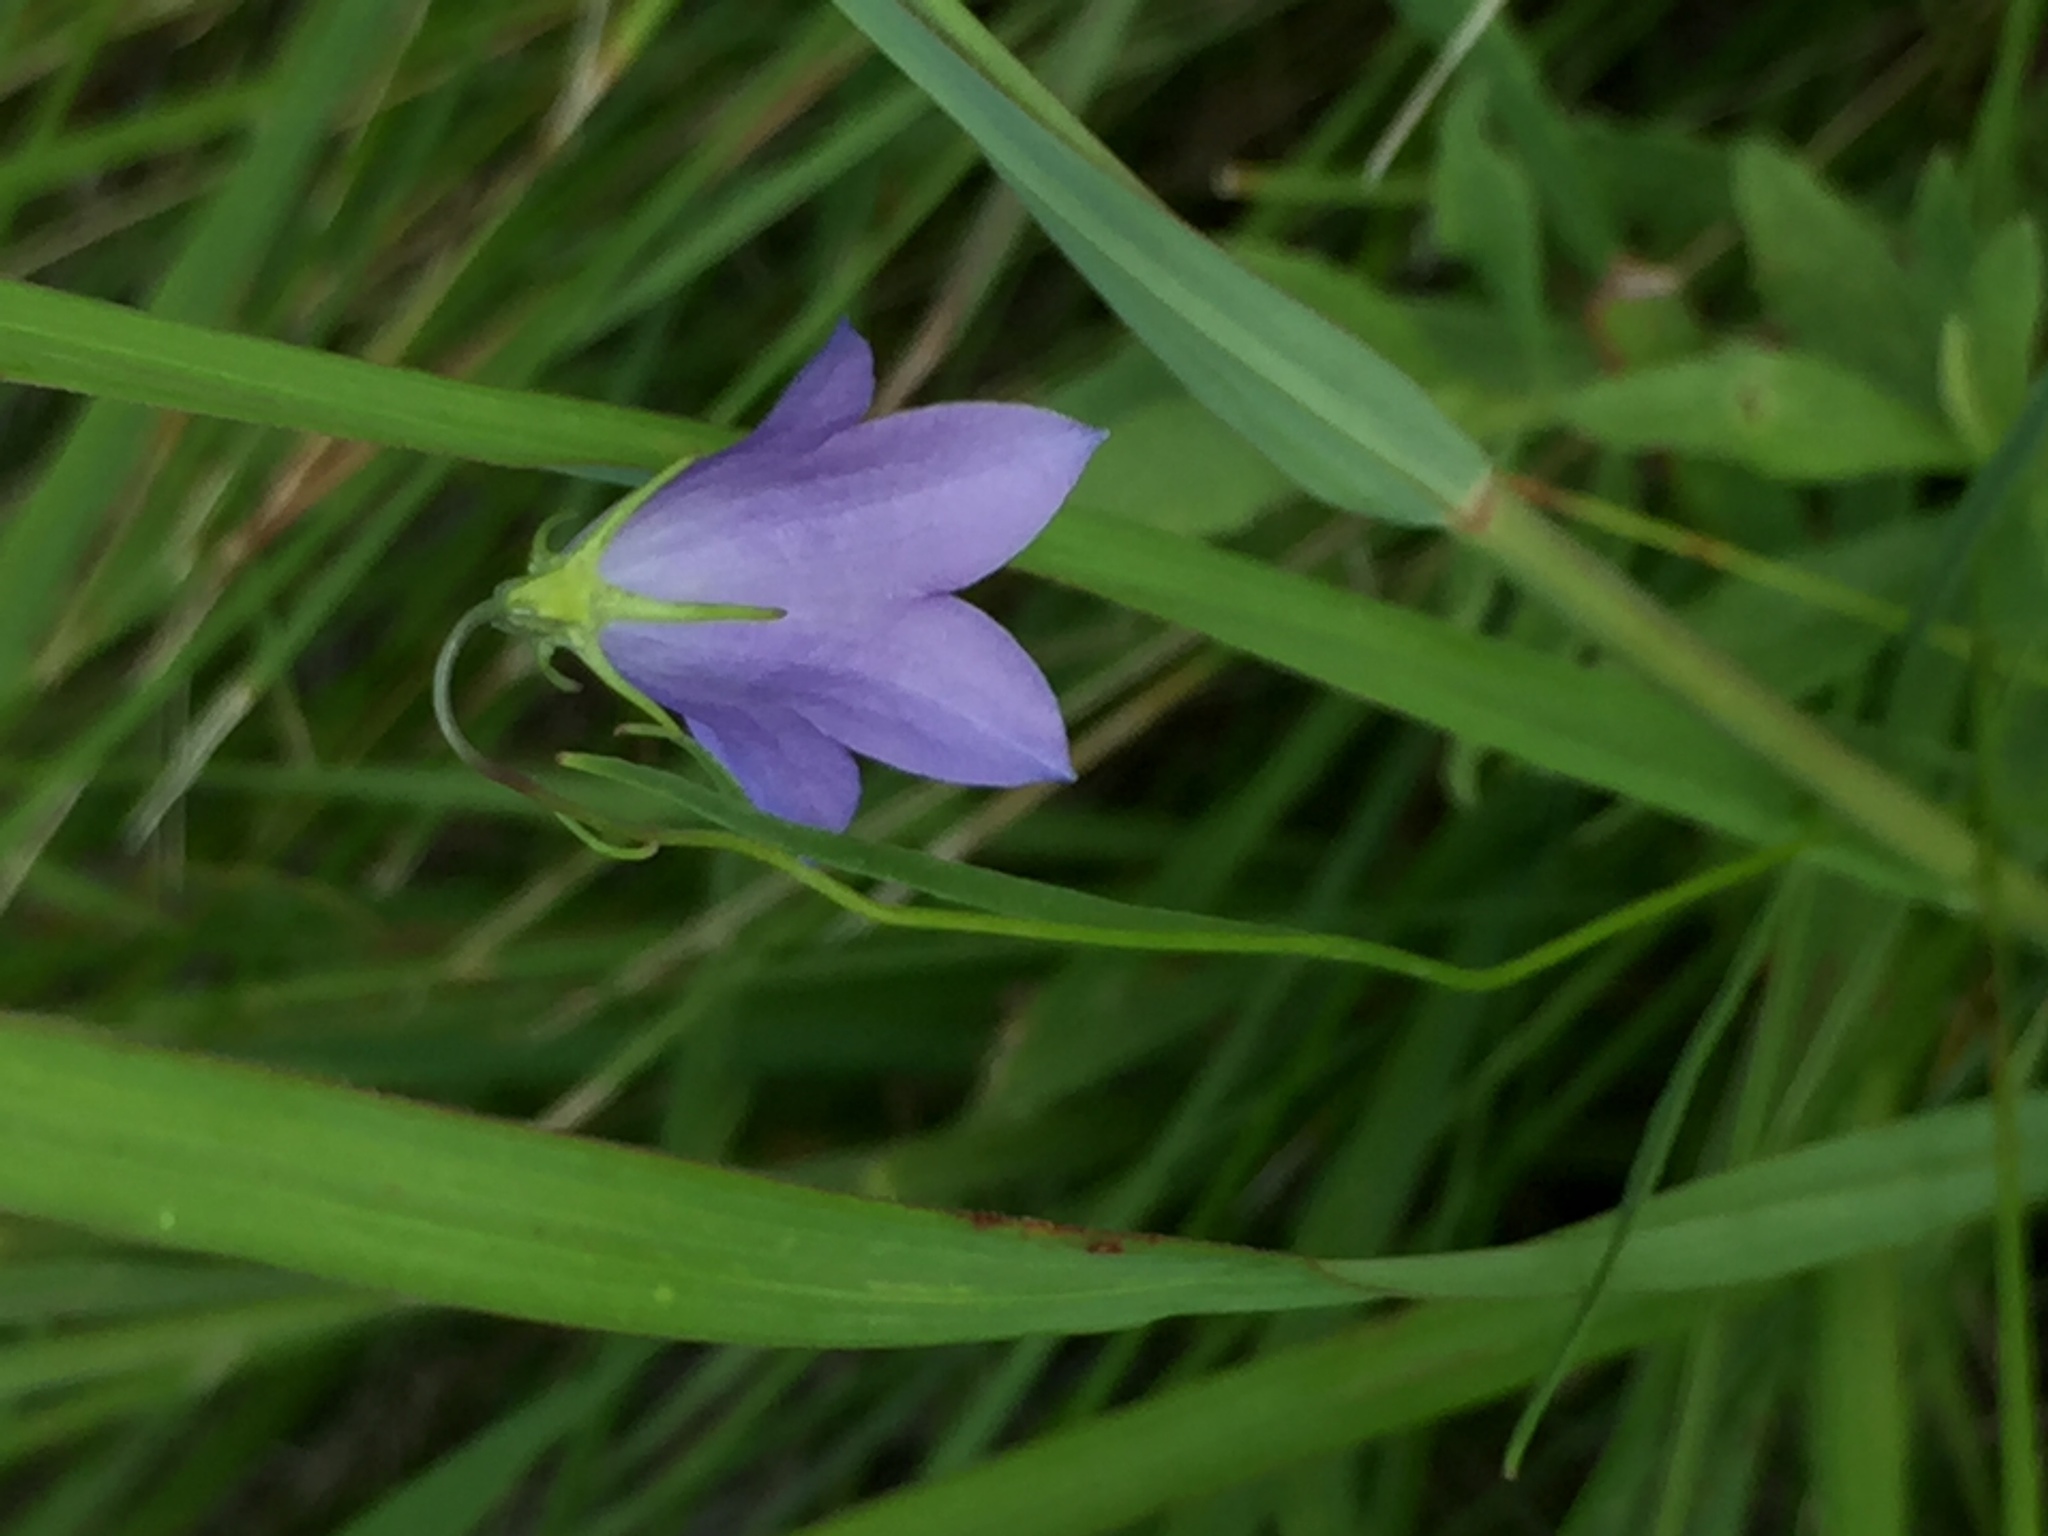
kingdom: Plantae
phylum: Tracheophyta
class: Magnoliopsida
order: Asterales
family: Campanulaceae
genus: Campanula
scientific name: Campanula petiolata
